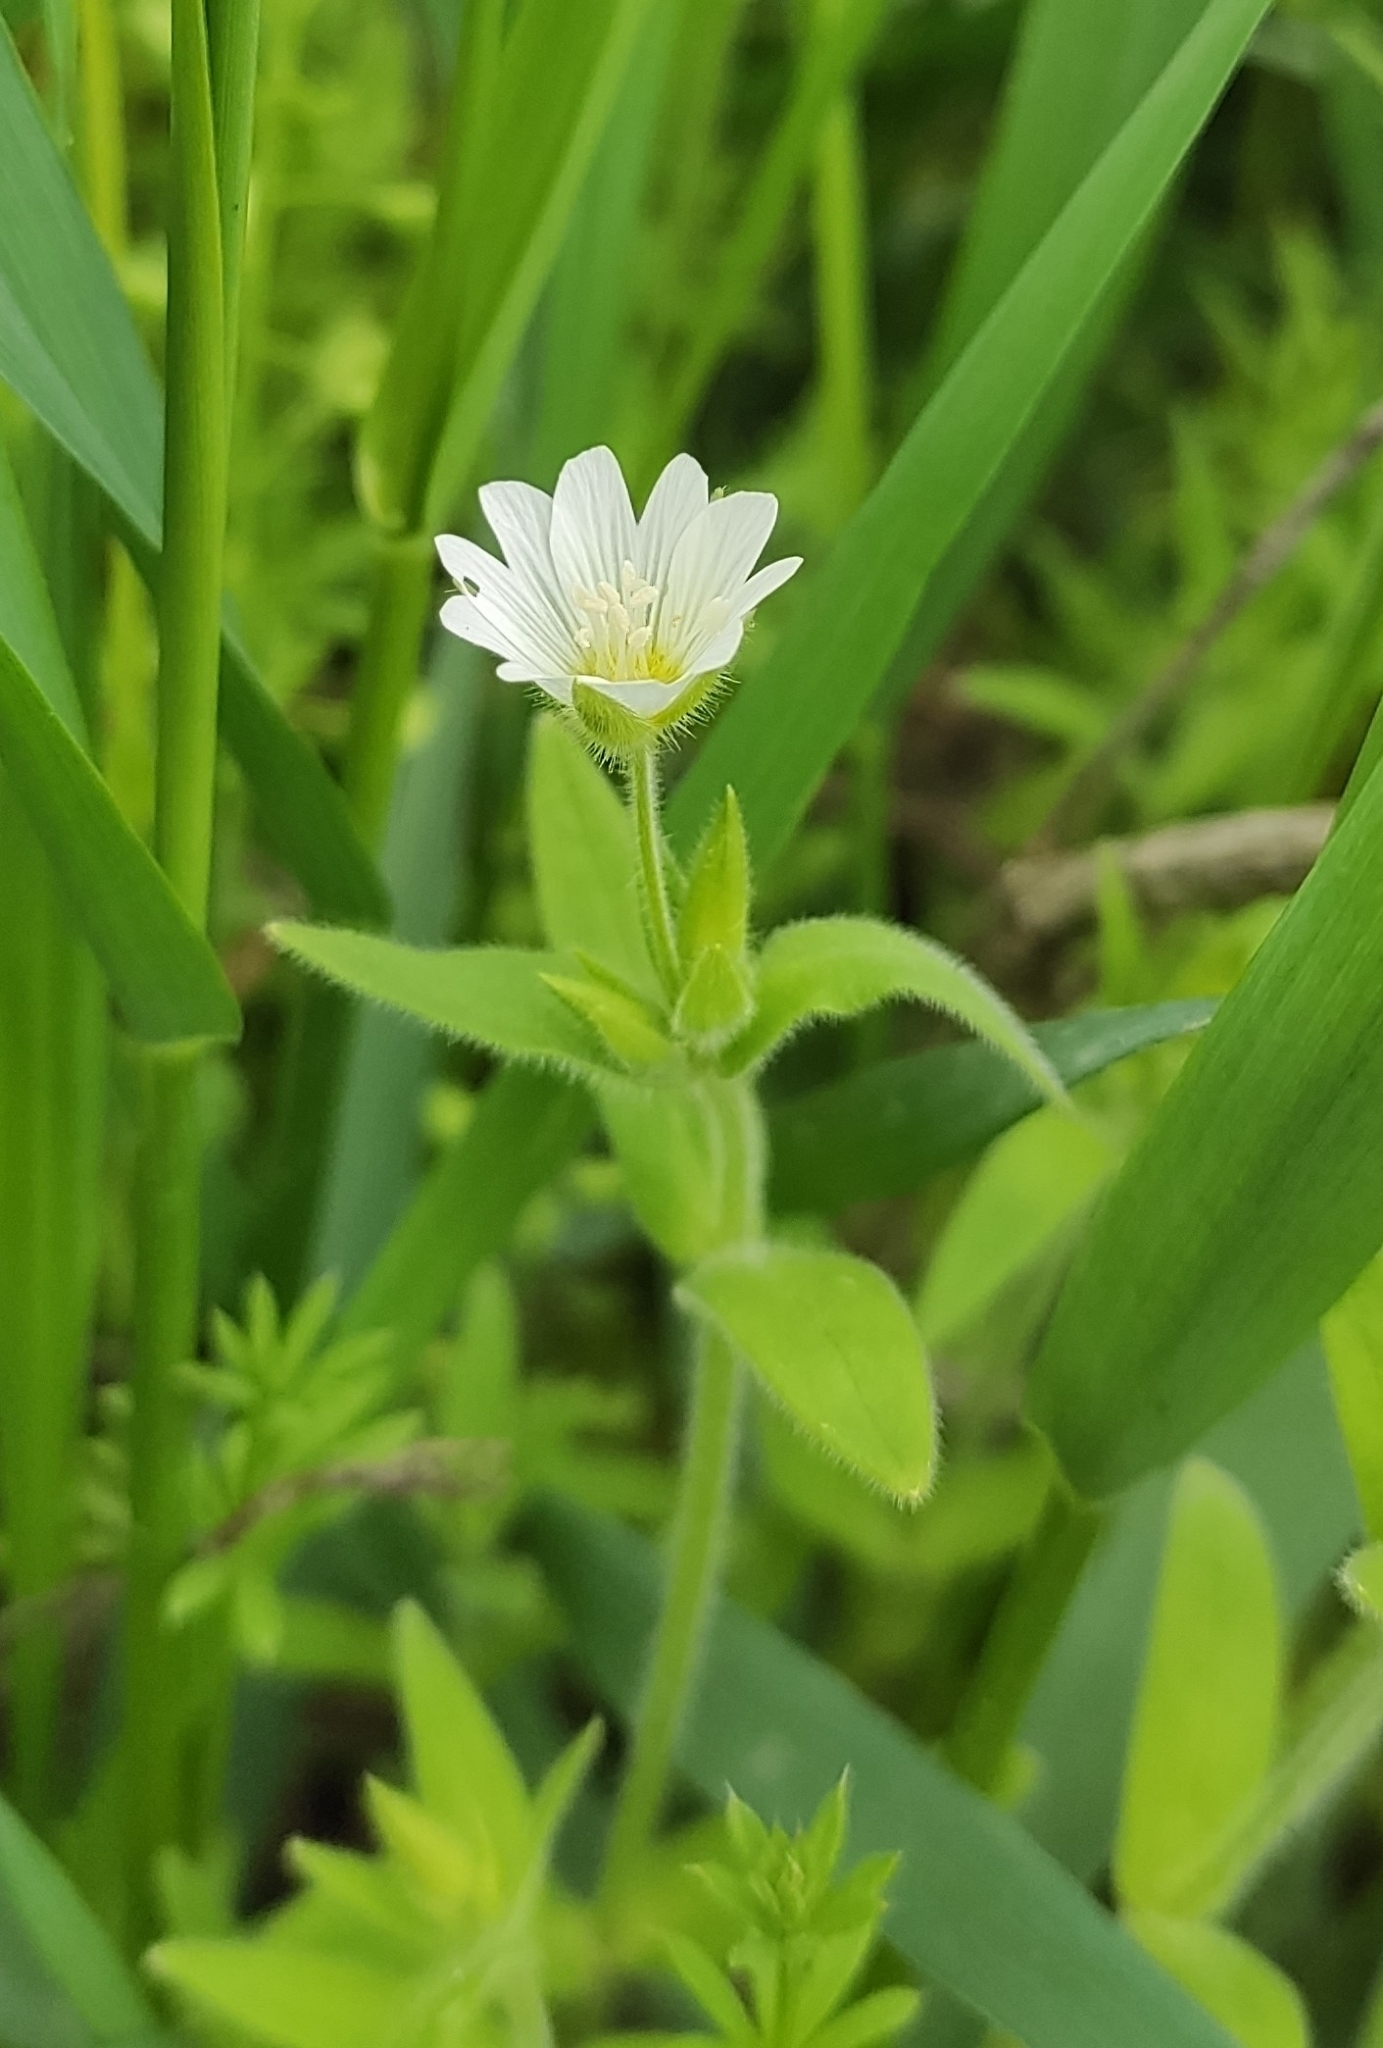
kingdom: Plantae
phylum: Tracheophyta
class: Magnoliopsida
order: Caryophyllales
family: Caryophyllaceae
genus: Cerastium
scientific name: Cerastium nemorale
